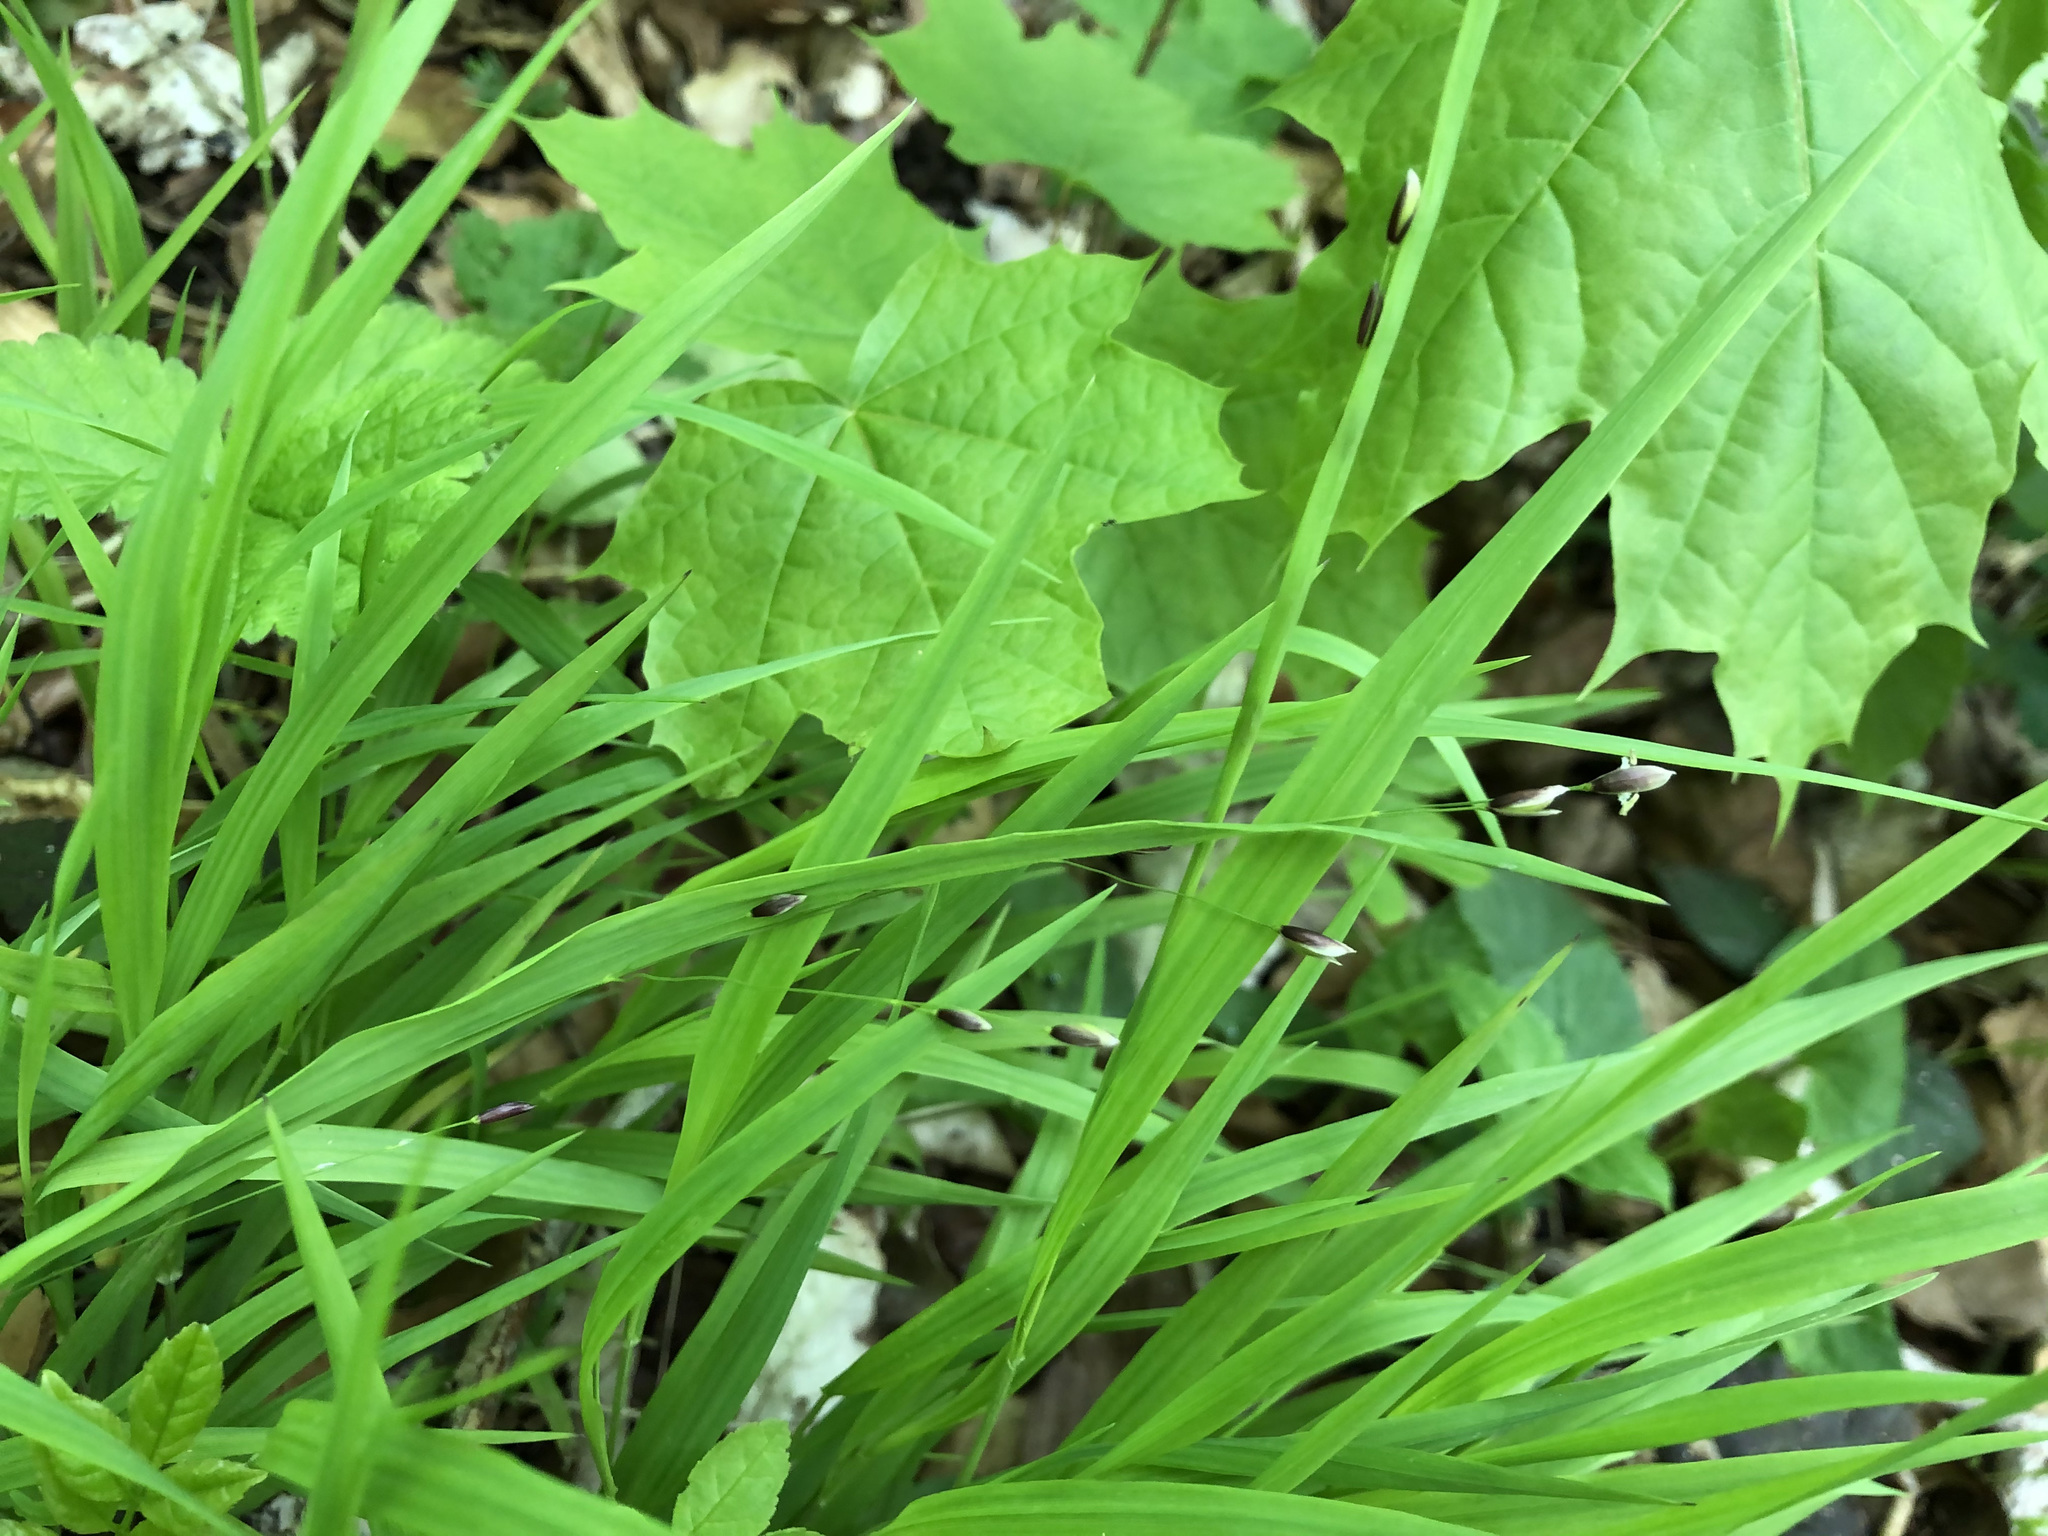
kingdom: Plantae
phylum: Tracheophyta
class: Liliopsida
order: Poales
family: Poaceae
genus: Melica
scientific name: Melica uniflora
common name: Wood melick
